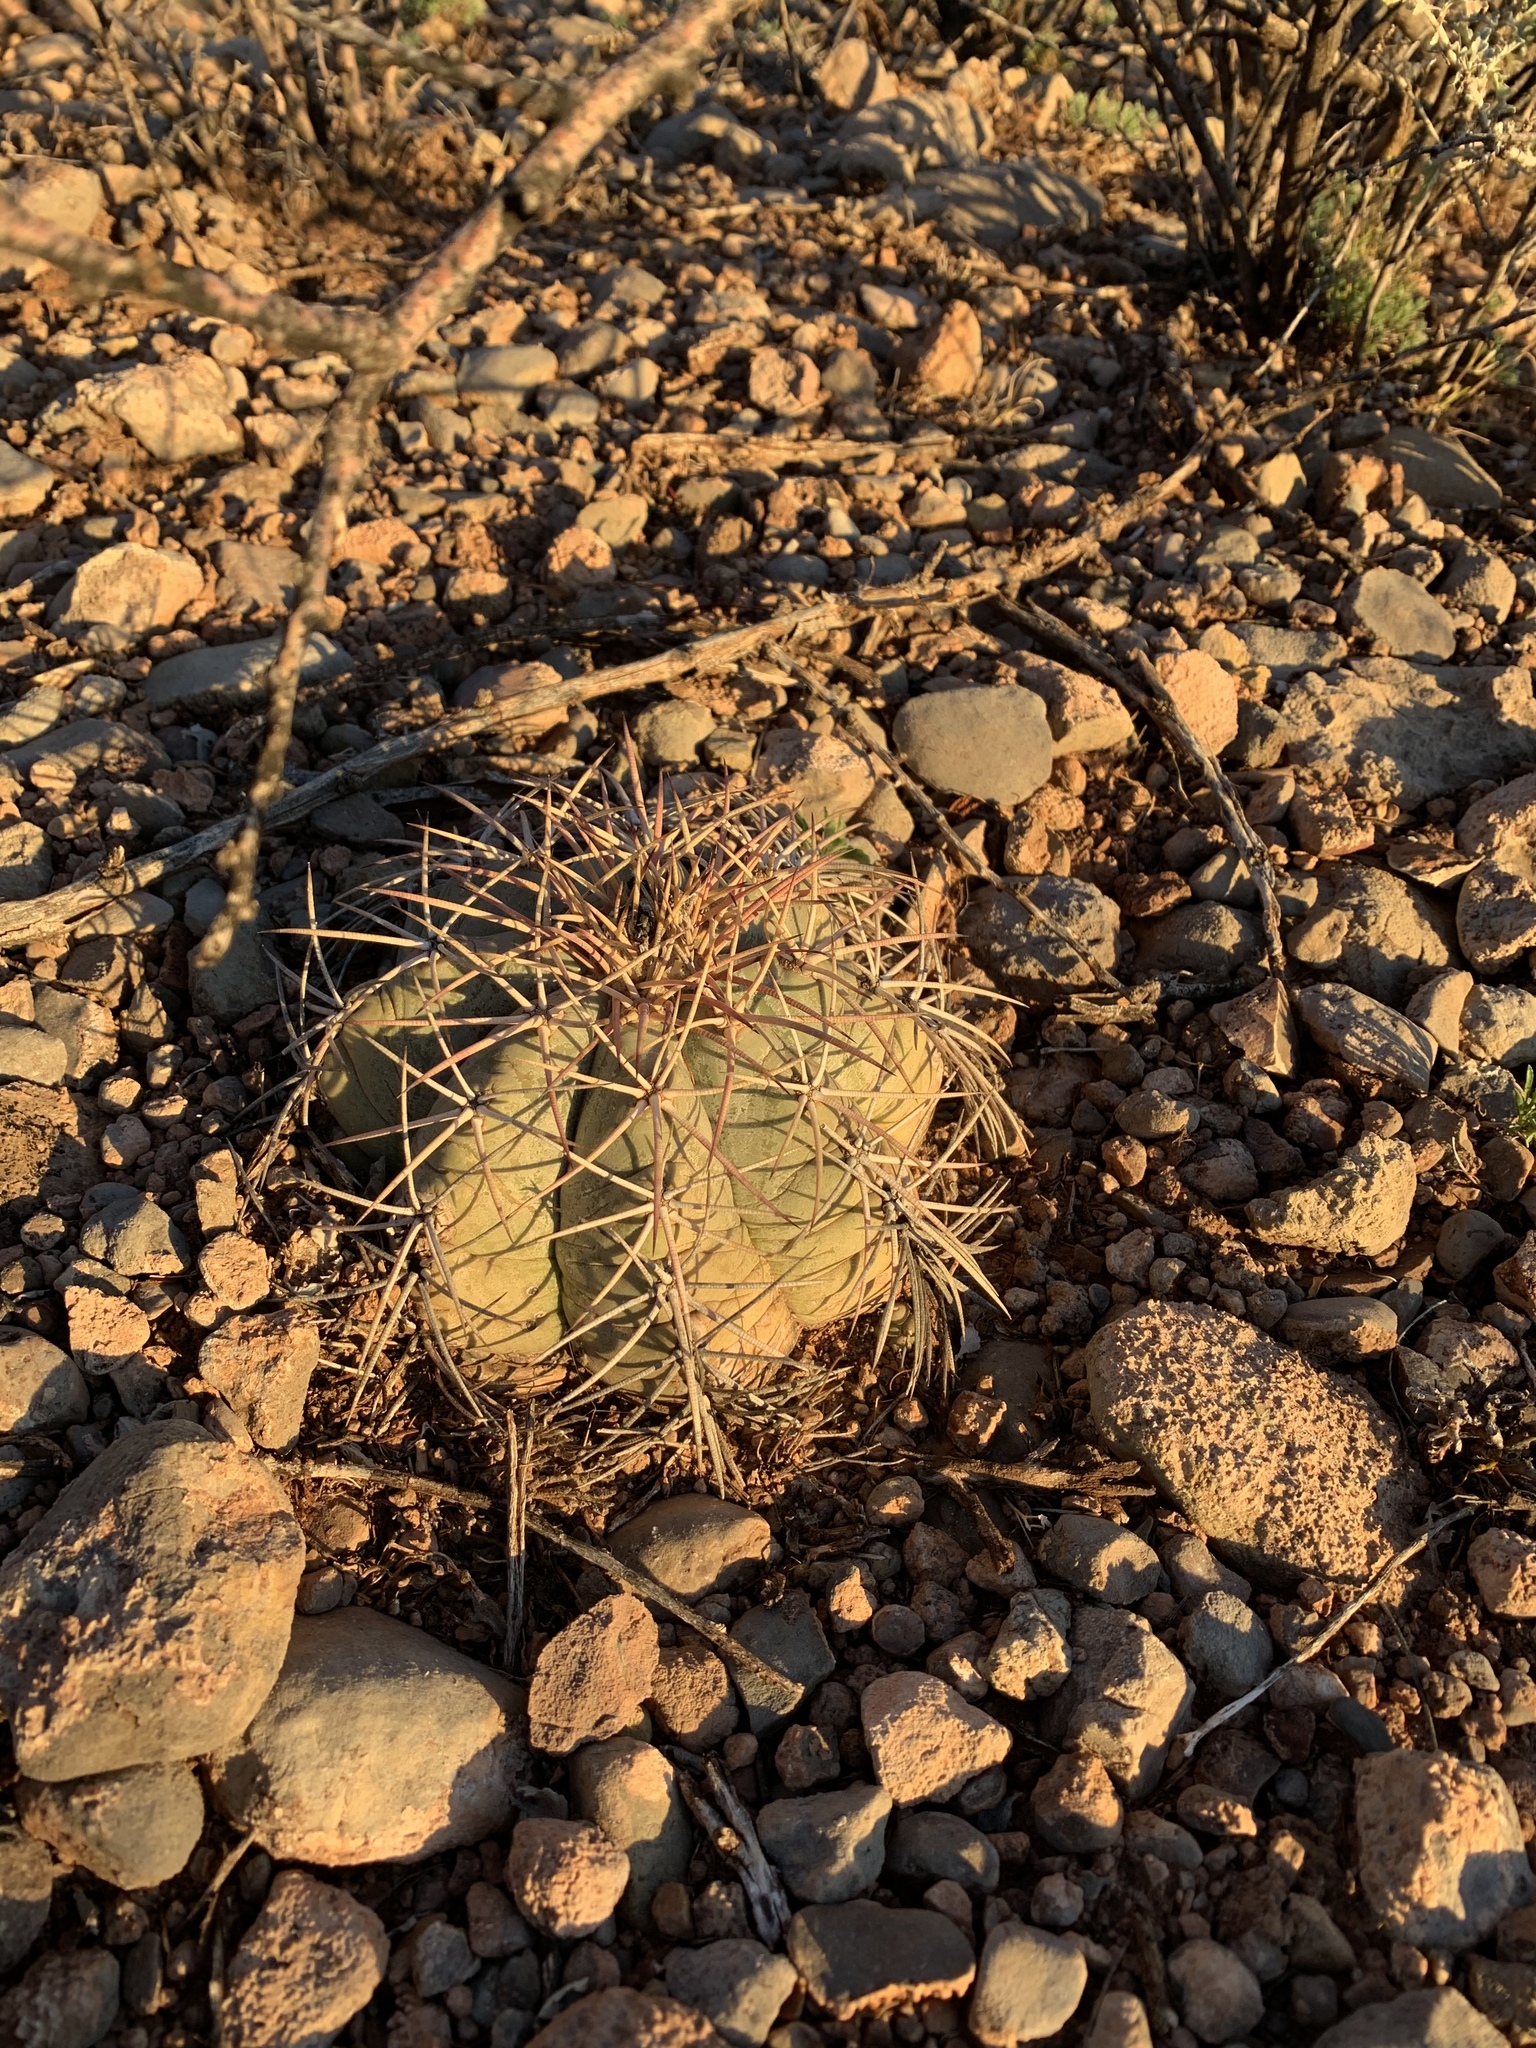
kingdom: Plantae
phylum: Tracheophyta
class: Magnoliopsida
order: Caryophyllales
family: Cactaceae
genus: Echinocactus
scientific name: Echinocactus horizonthalonius
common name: Devilshead
